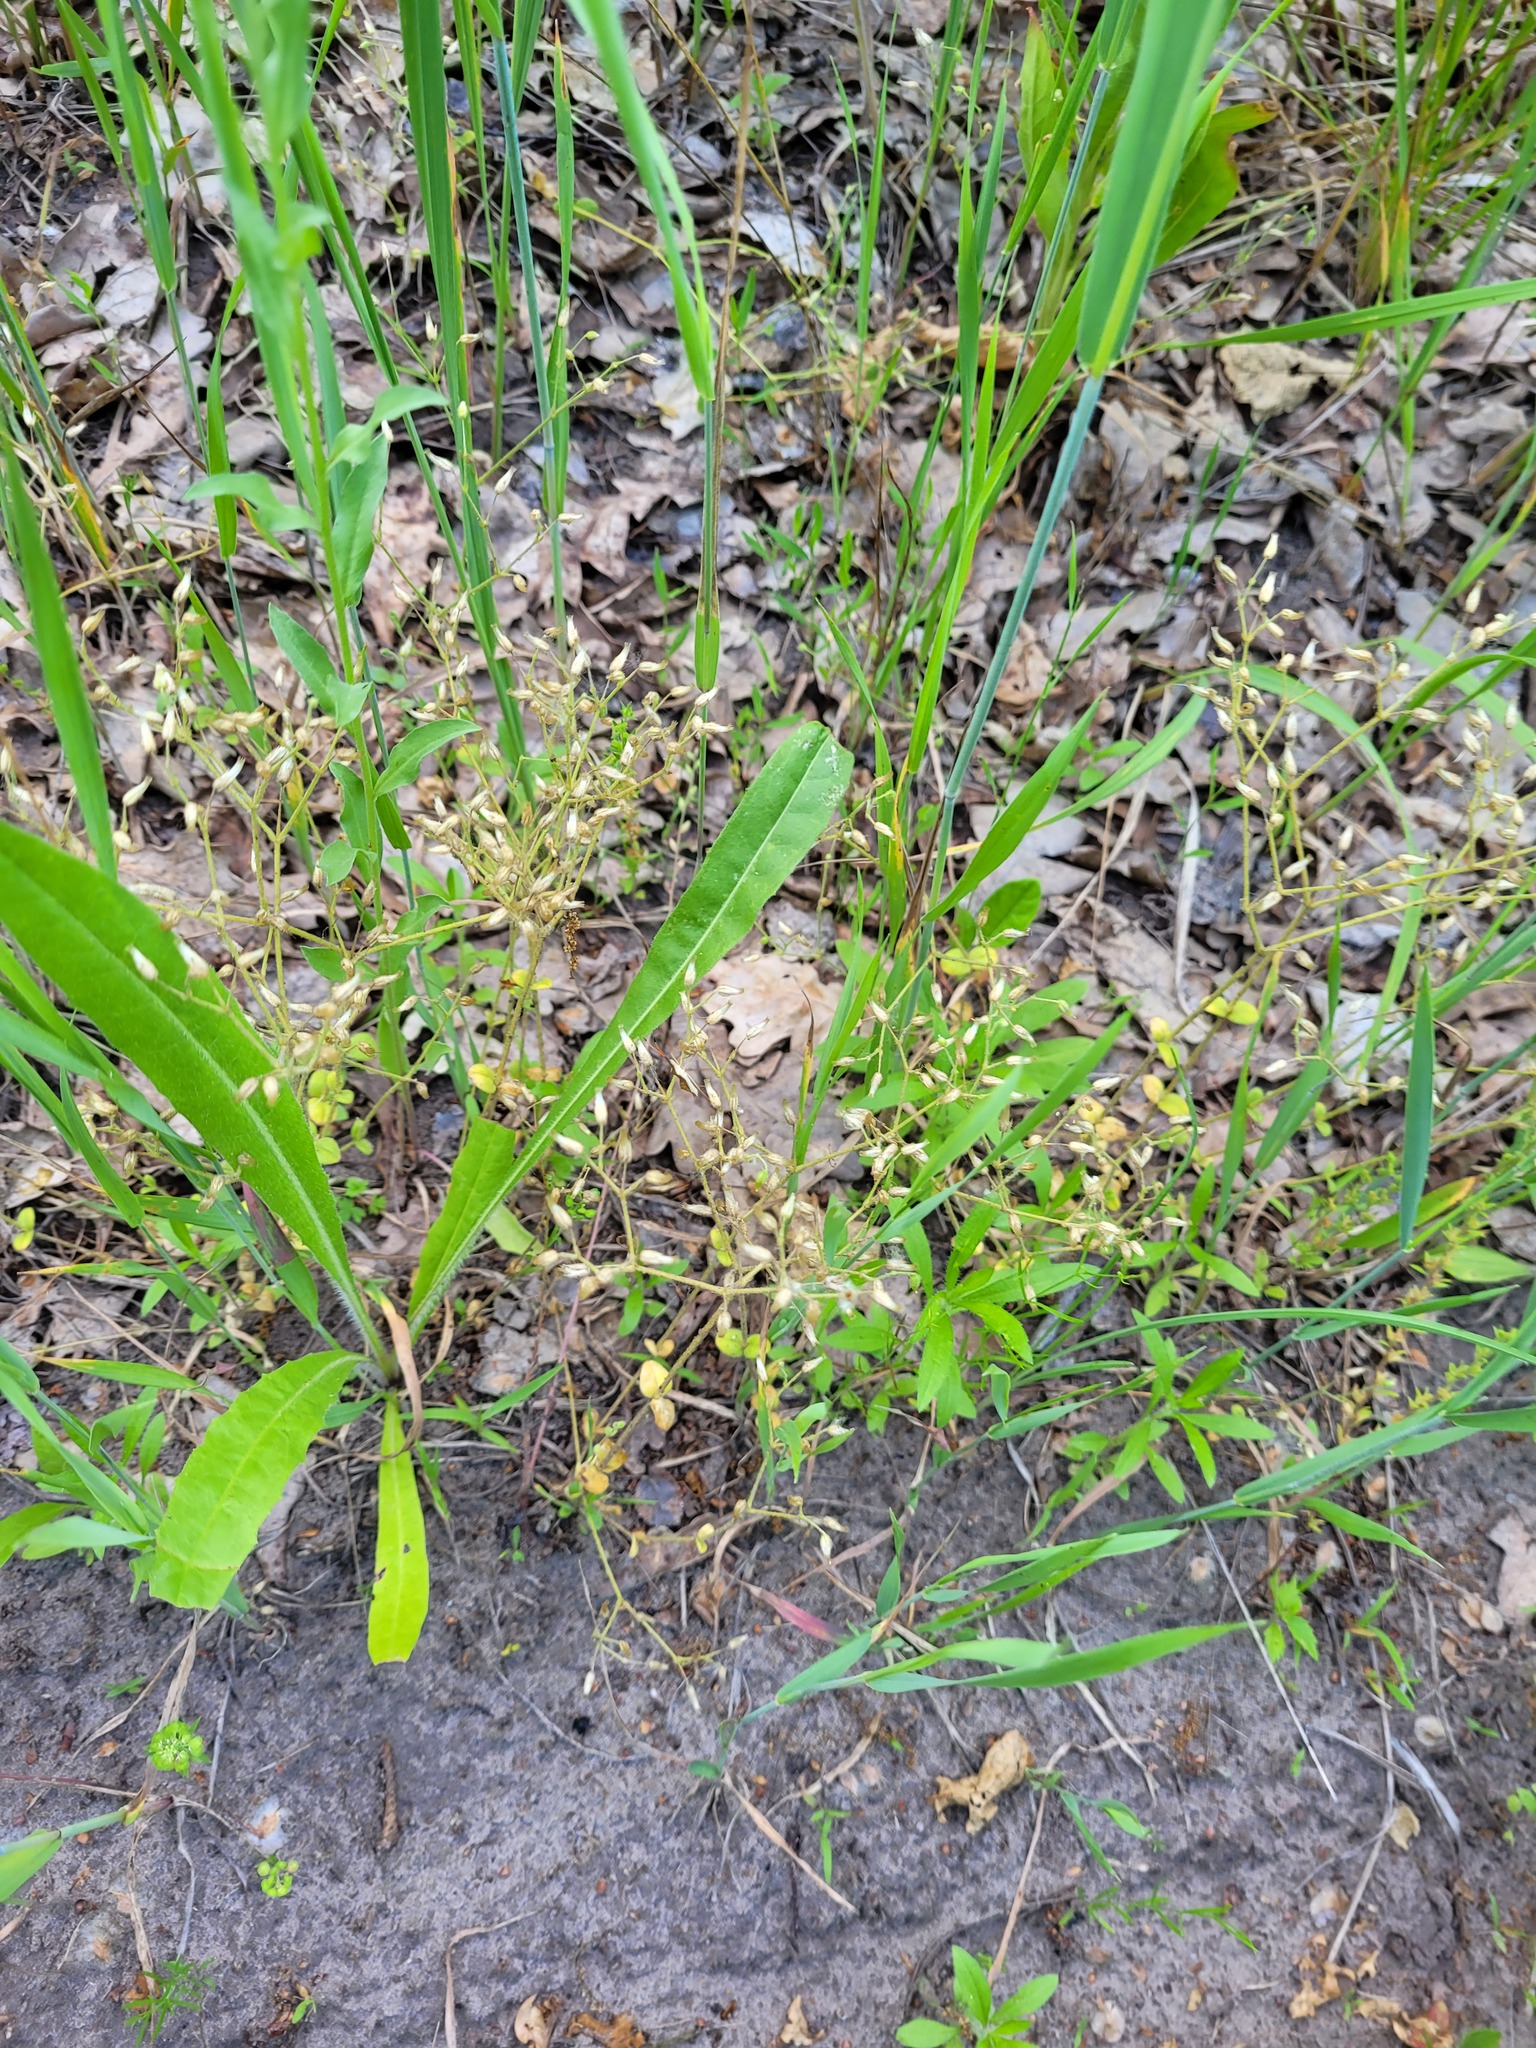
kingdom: Plantae
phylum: Tracheophyta
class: Magnoliopsida
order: Caryophyllales
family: Caryophyllaceae
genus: Cerastium
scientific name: Cerastium semidecandrum
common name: Little mouse-ear
